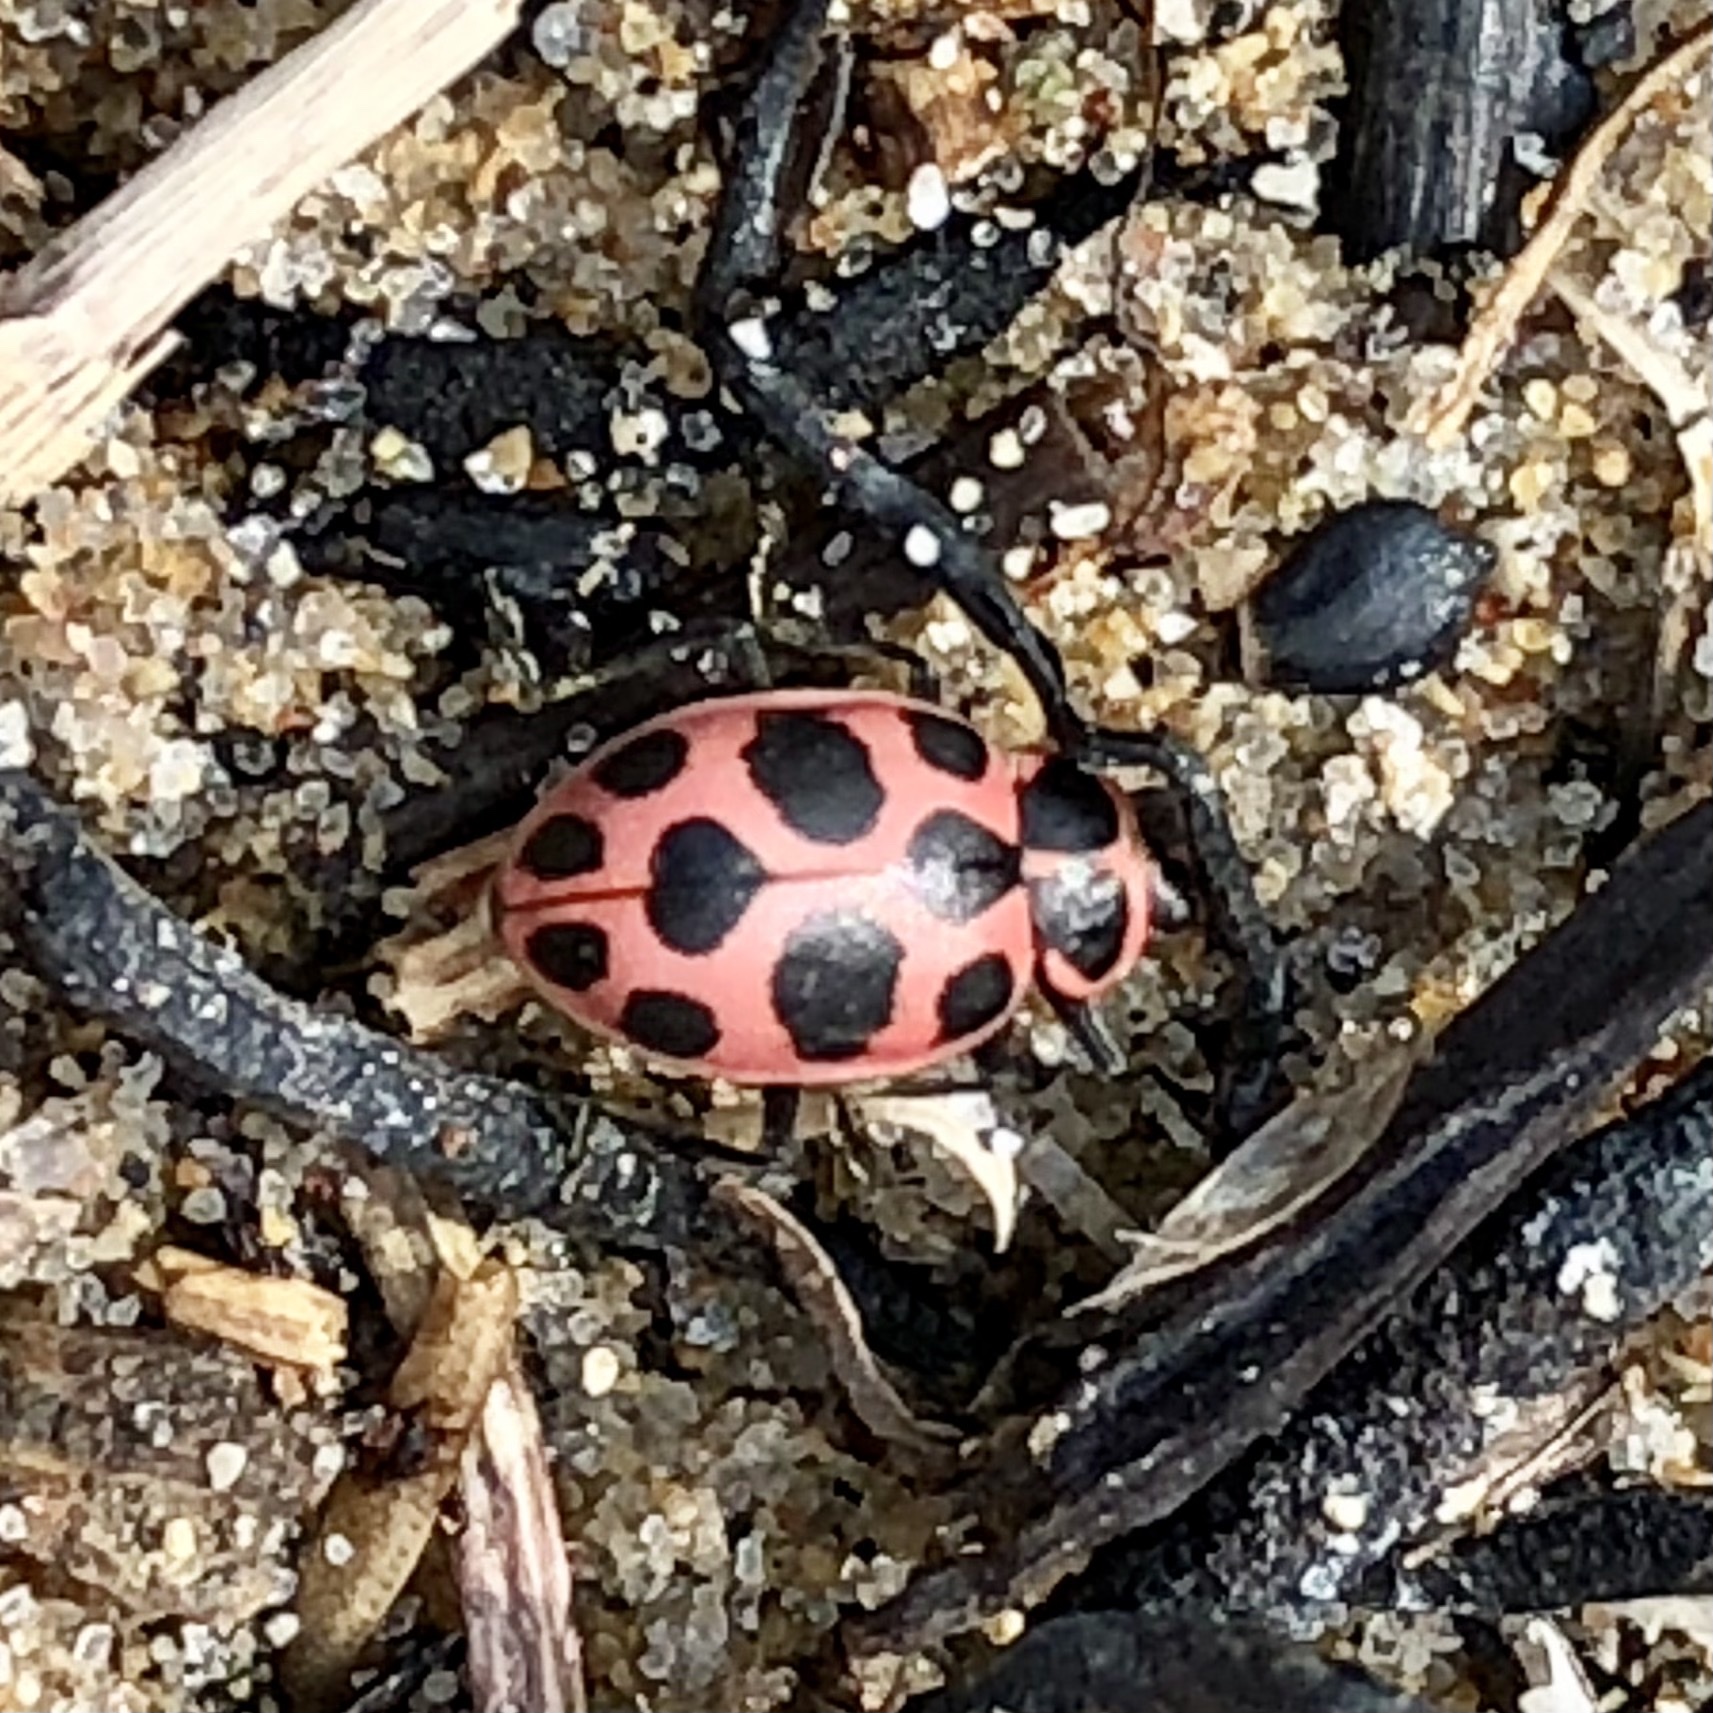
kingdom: Animalia
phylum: Arthropoda
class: Insecta
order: Coleoptera
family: Coccinellidae
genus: Coleomegilla
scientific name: Coleomegilla maculata
